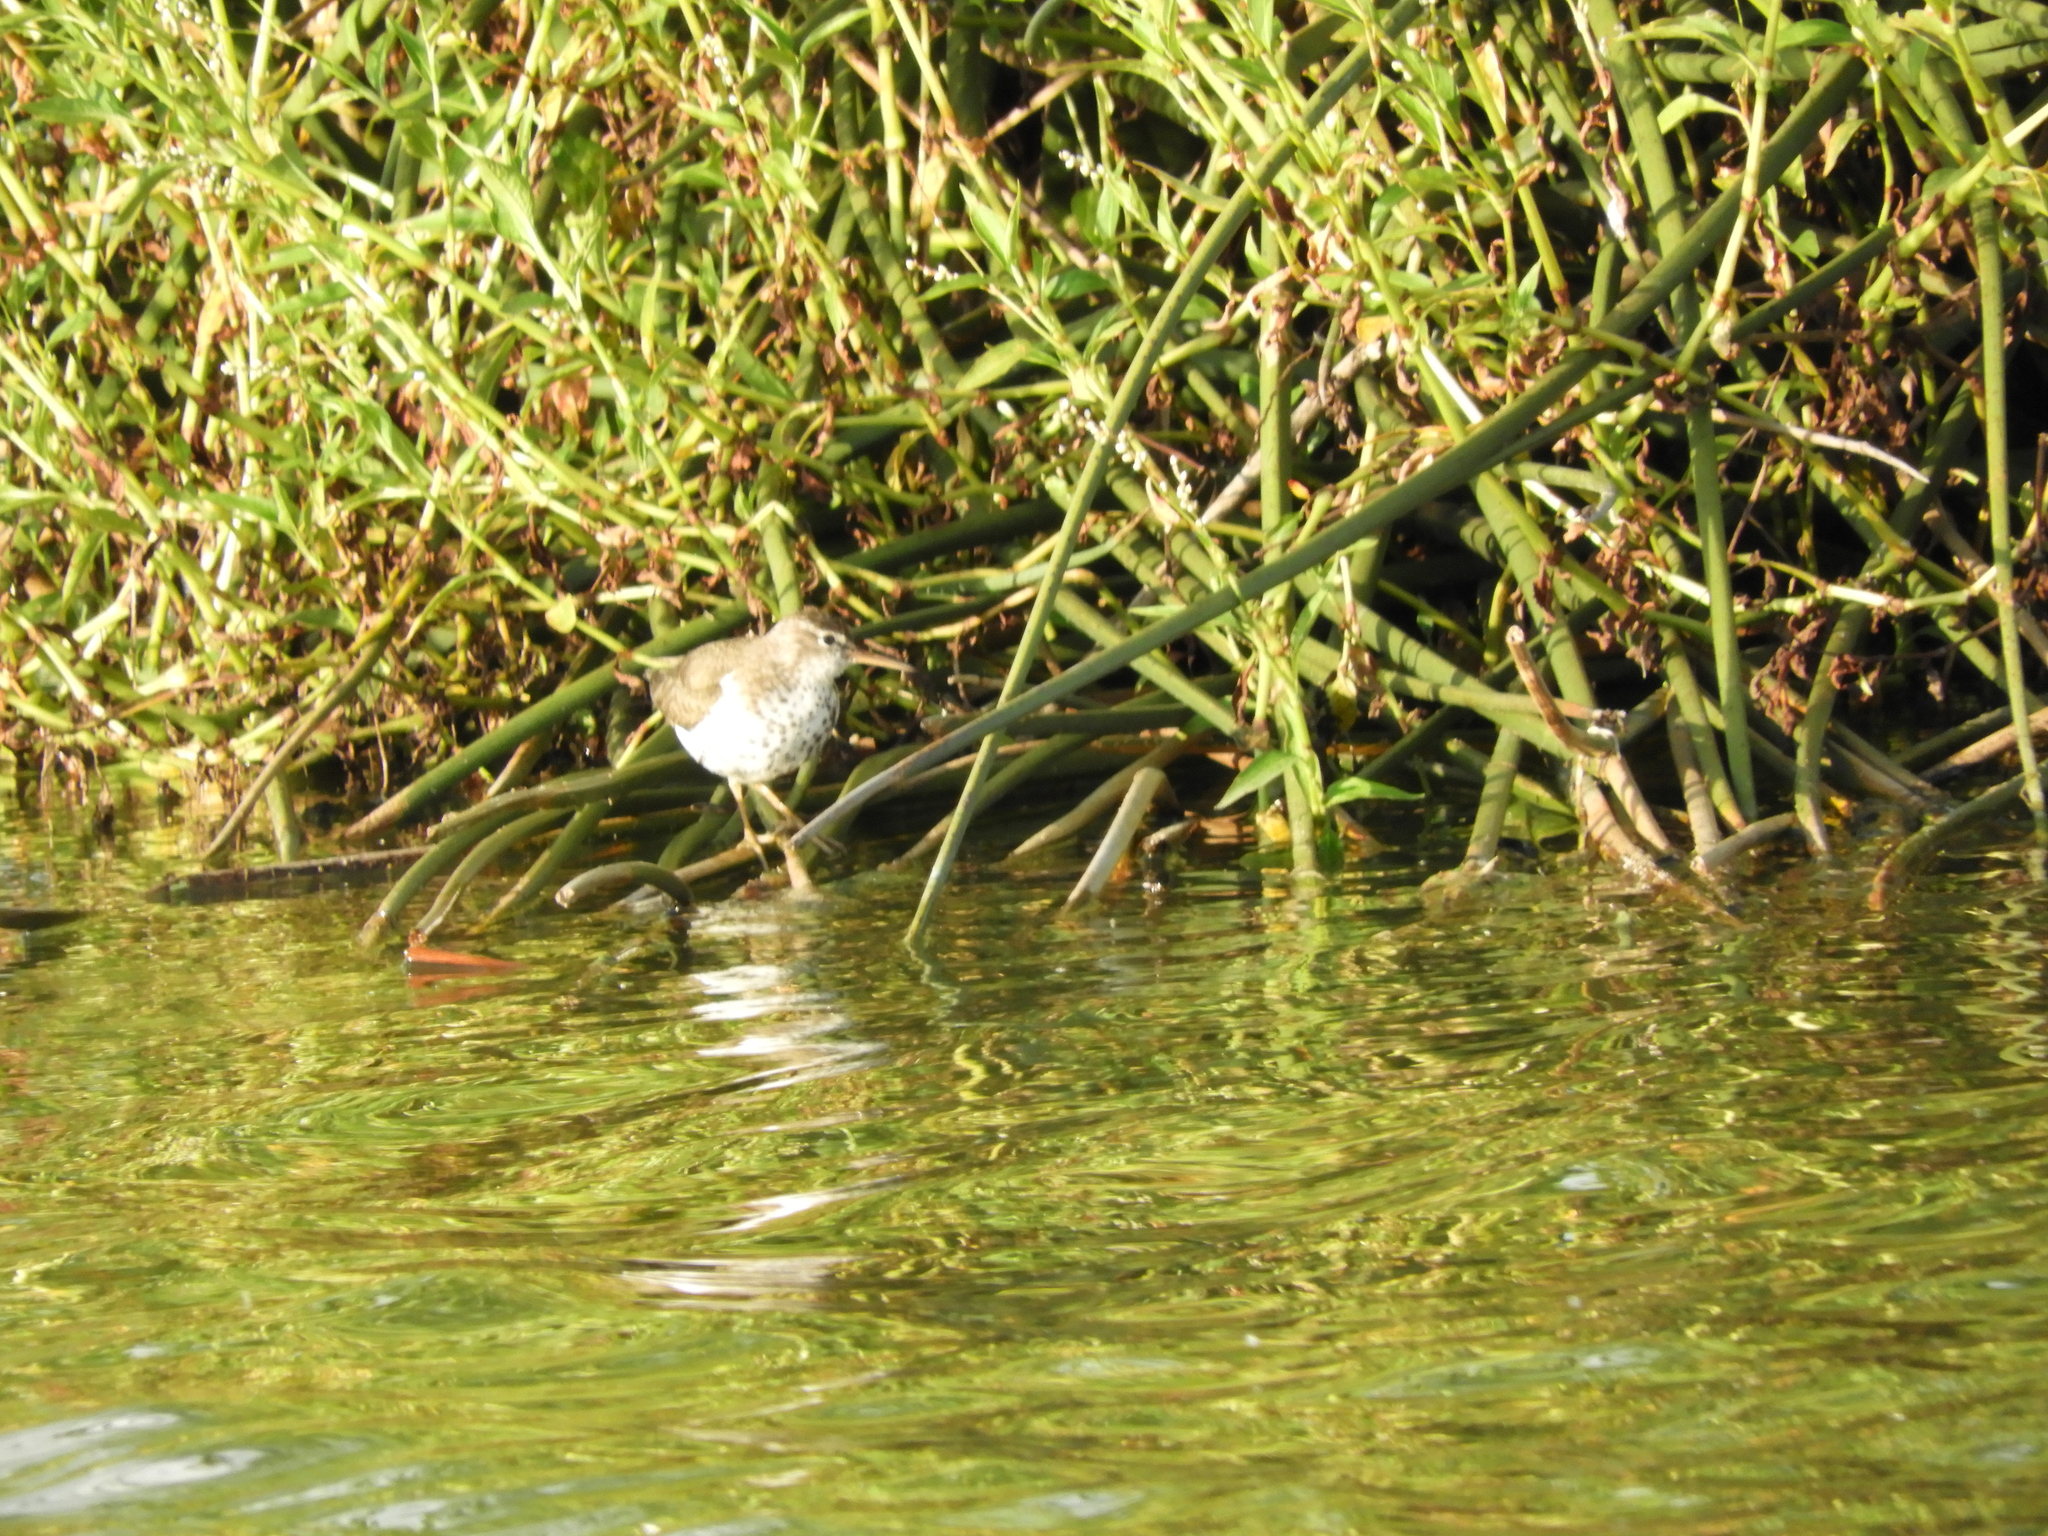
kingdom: Animalia
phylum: Chordata
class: Aves
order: Charadriiformes
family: Scolopacidae
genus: Actitis
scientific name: Actitis macularius
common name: Spotted sandpiper
